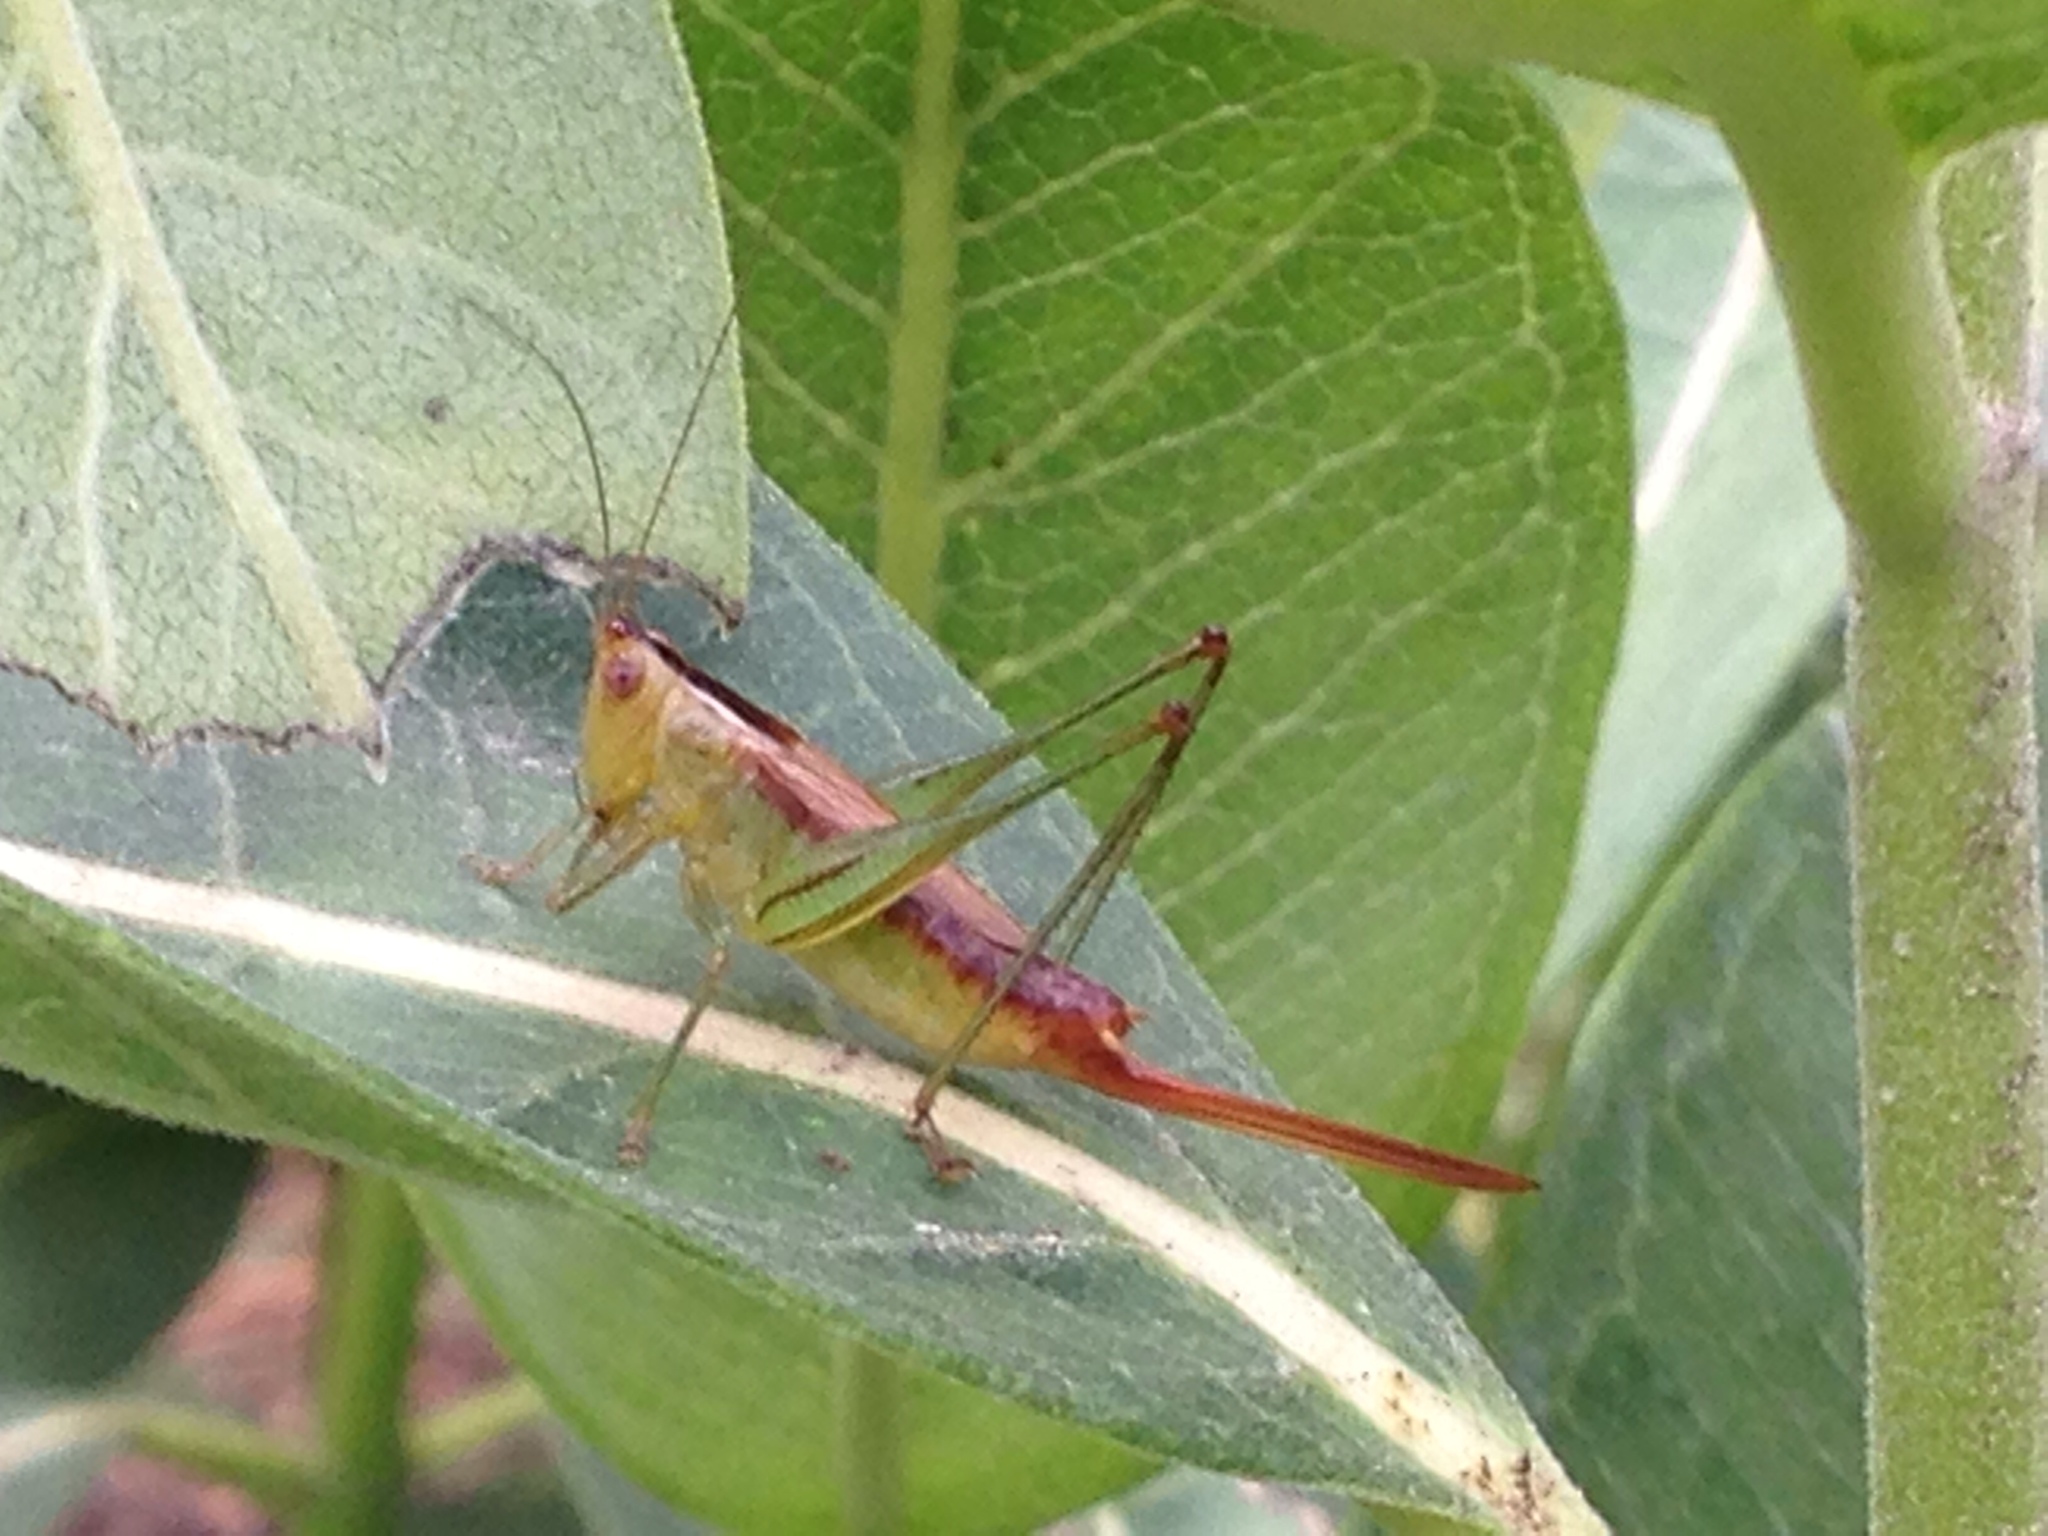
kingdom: Animalia
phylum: Arthropoda
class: Insecta
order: Orthoptera
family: Tettigoniidae
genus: Conocephalus
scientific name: Conocephalus brevipennis
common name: Short-winged meadow katydid
